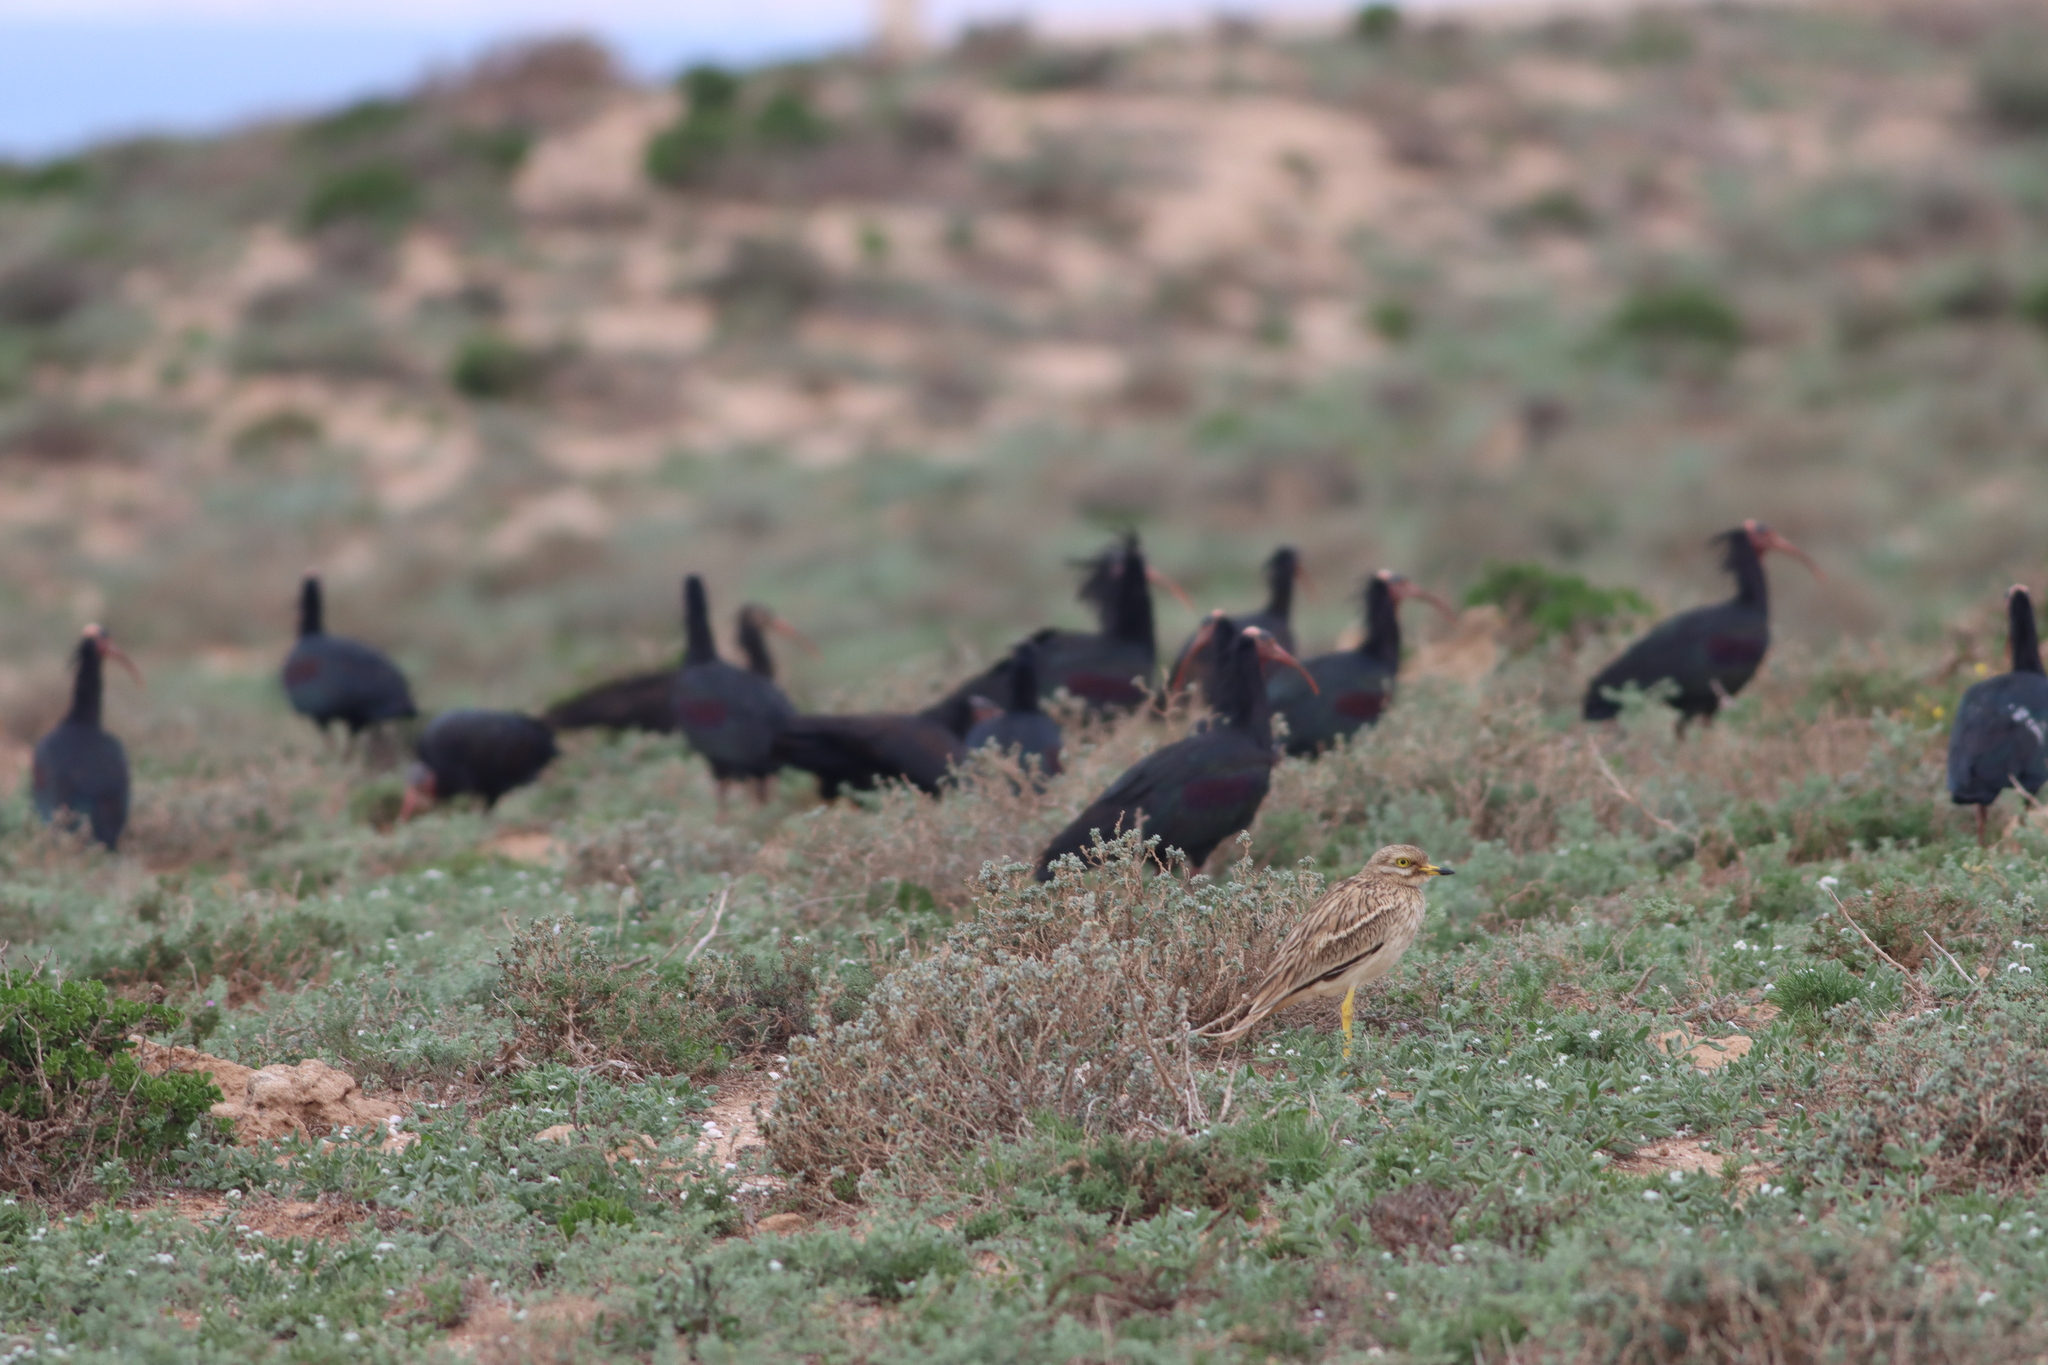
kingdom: Animalia
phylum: Chordata
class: Aves
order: Charadriiformes
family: Burhinidae
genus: Burhinus
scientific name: Burhinus oedicnemus
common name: Eurasian stone-curlew
